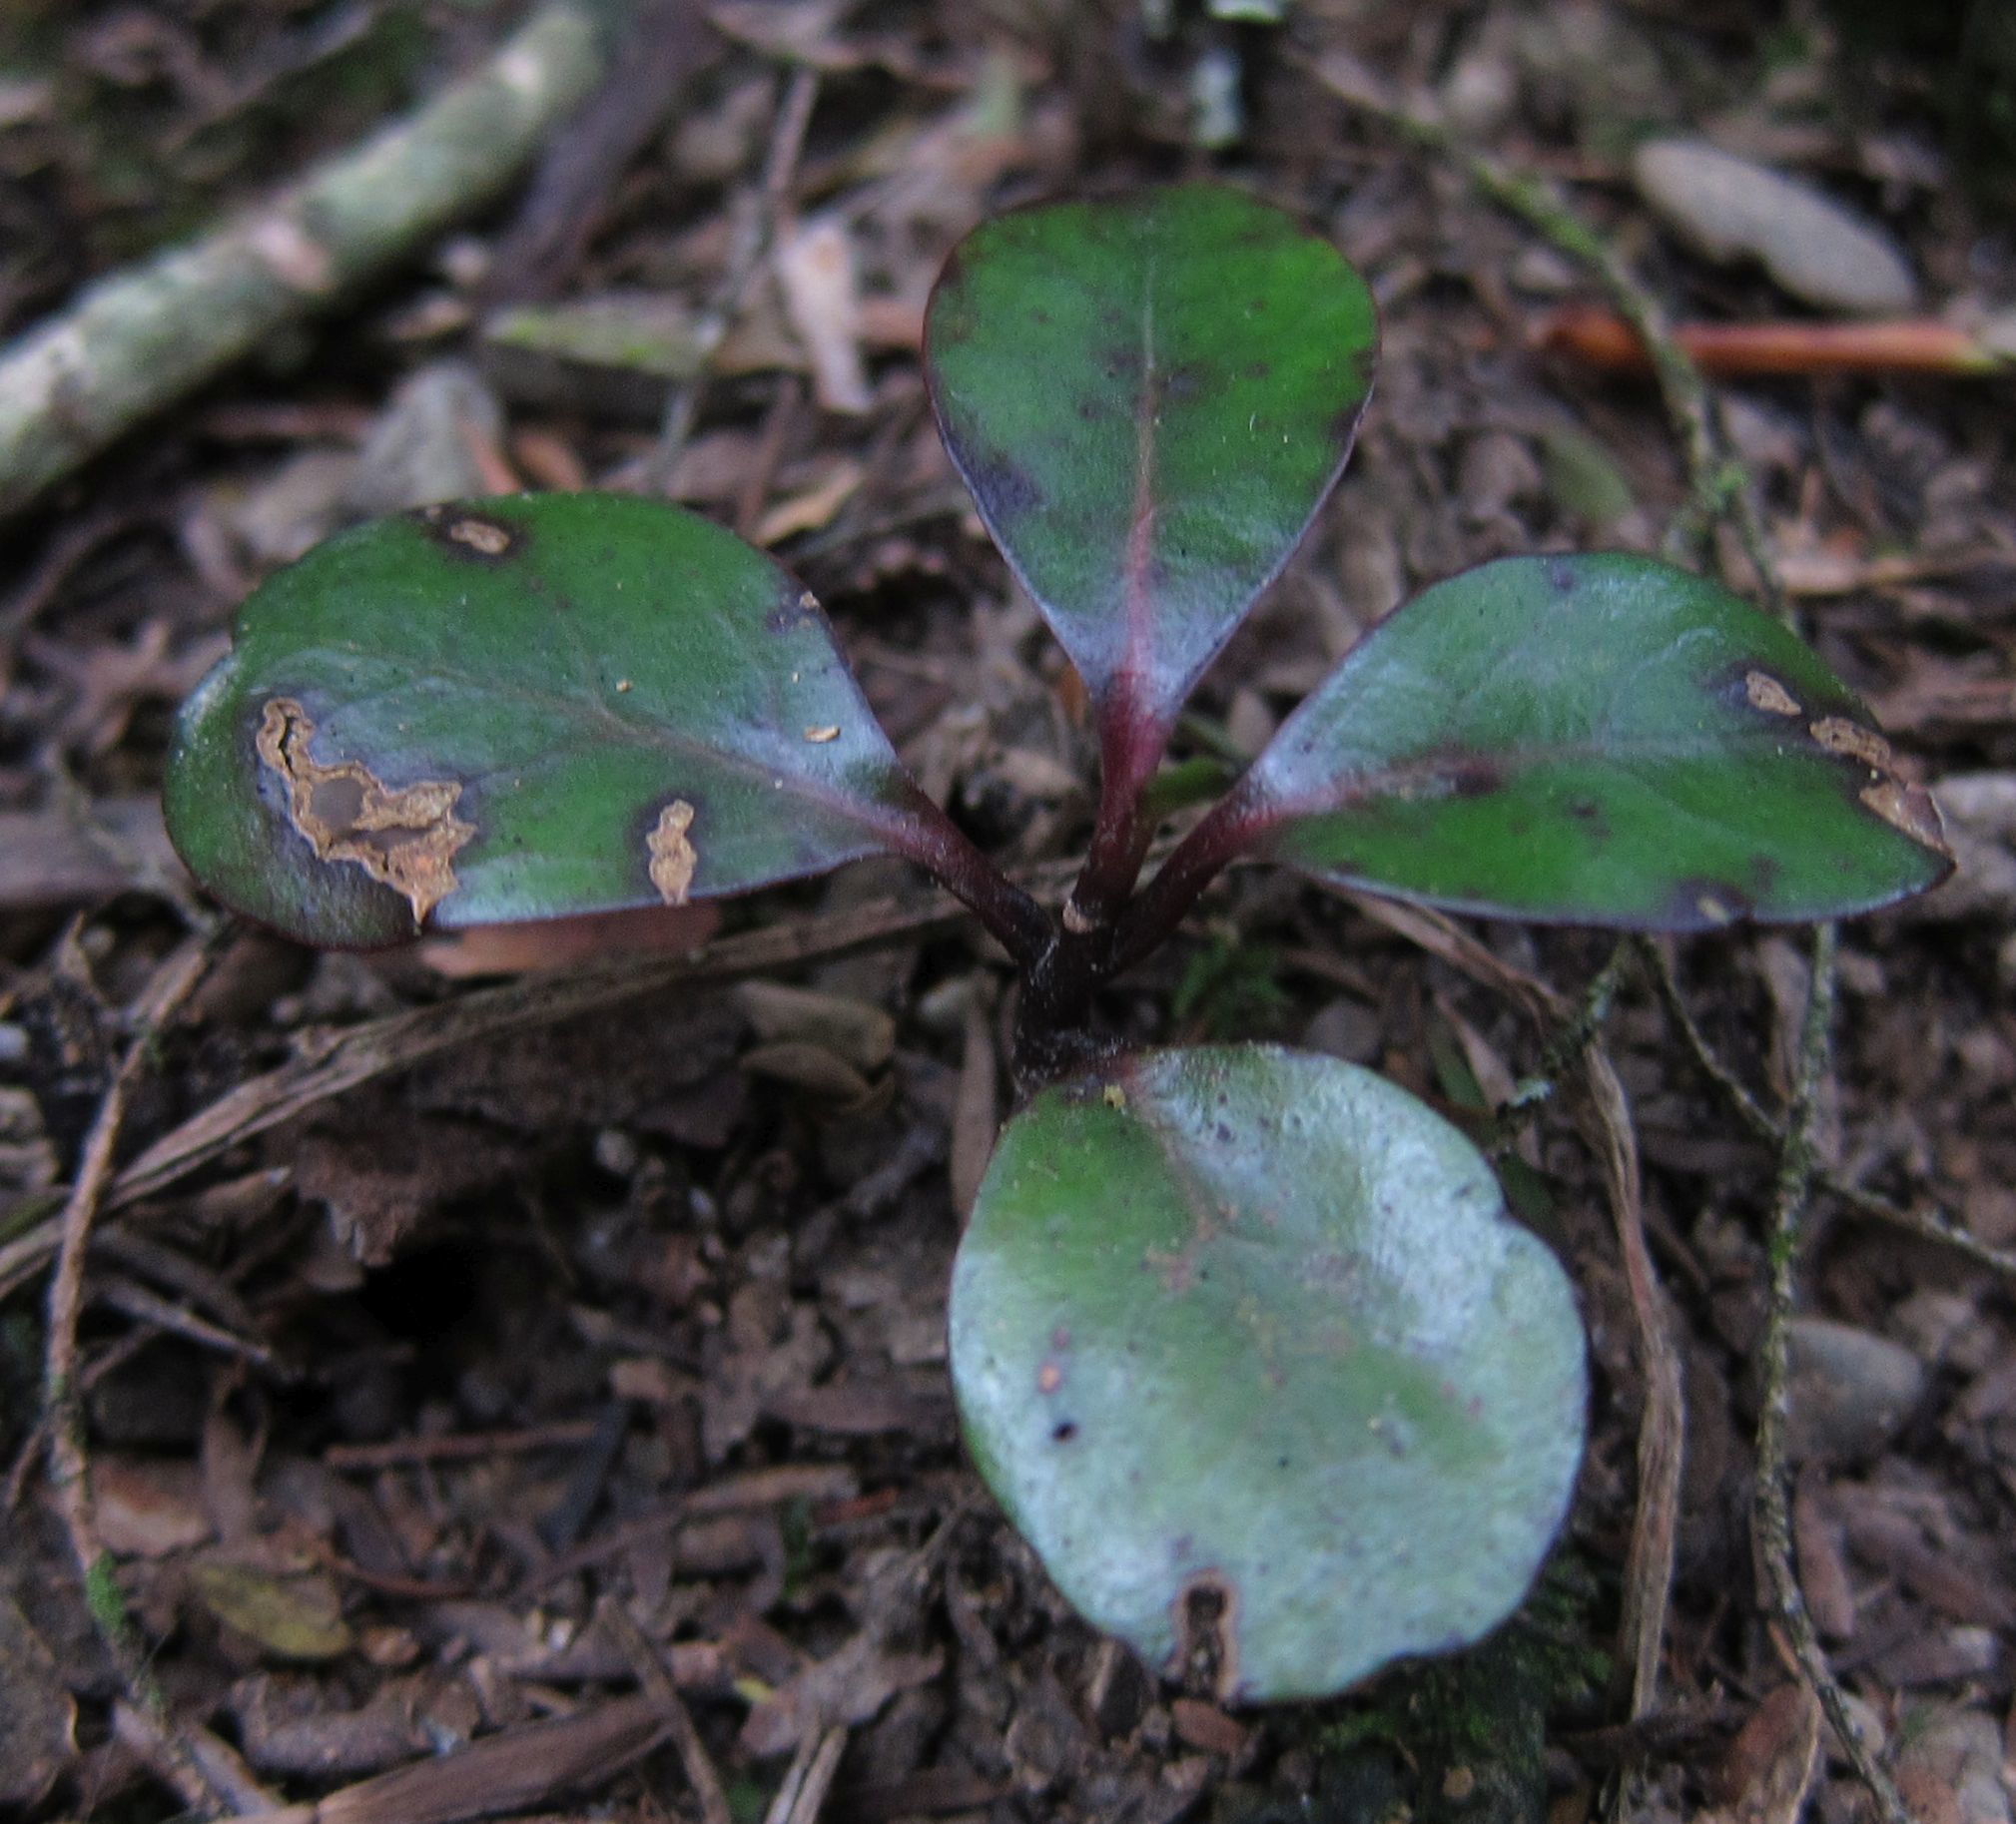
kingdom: Plantae
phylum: Tracheophyta
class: Magnoliopsida
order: Canellales
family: Winteraceae
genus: Pseudowintera
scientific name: Pseudowintera colorata
